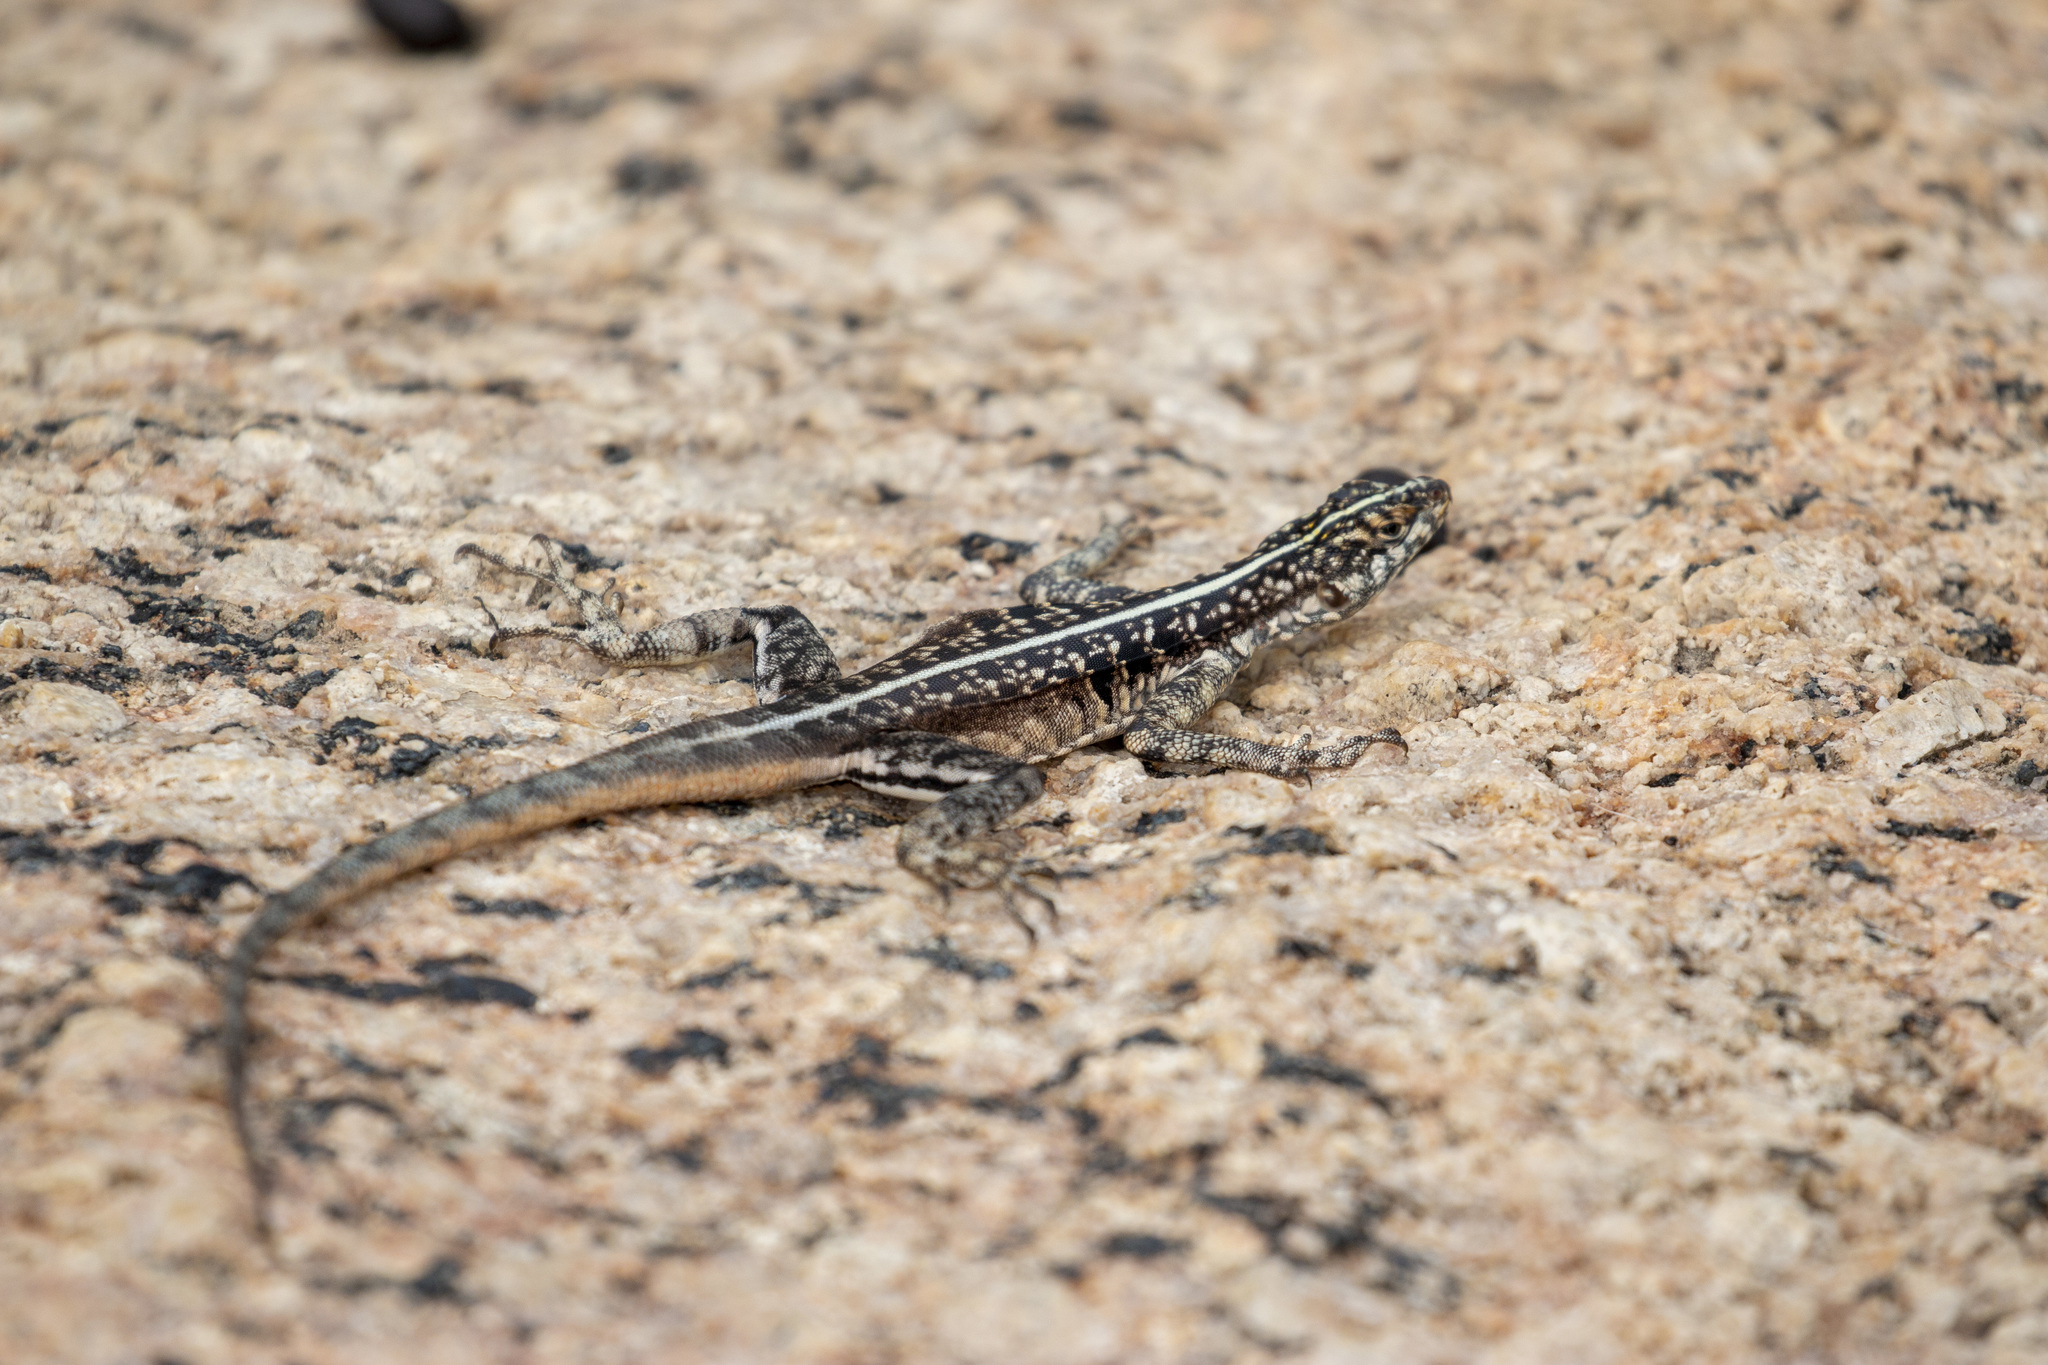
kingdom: Animalia
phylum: Chordata
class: Squamata
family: Tropiduridae
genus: Tropidurus
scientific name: Tropidurus semitaeniatus
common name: Striped lava lizard
